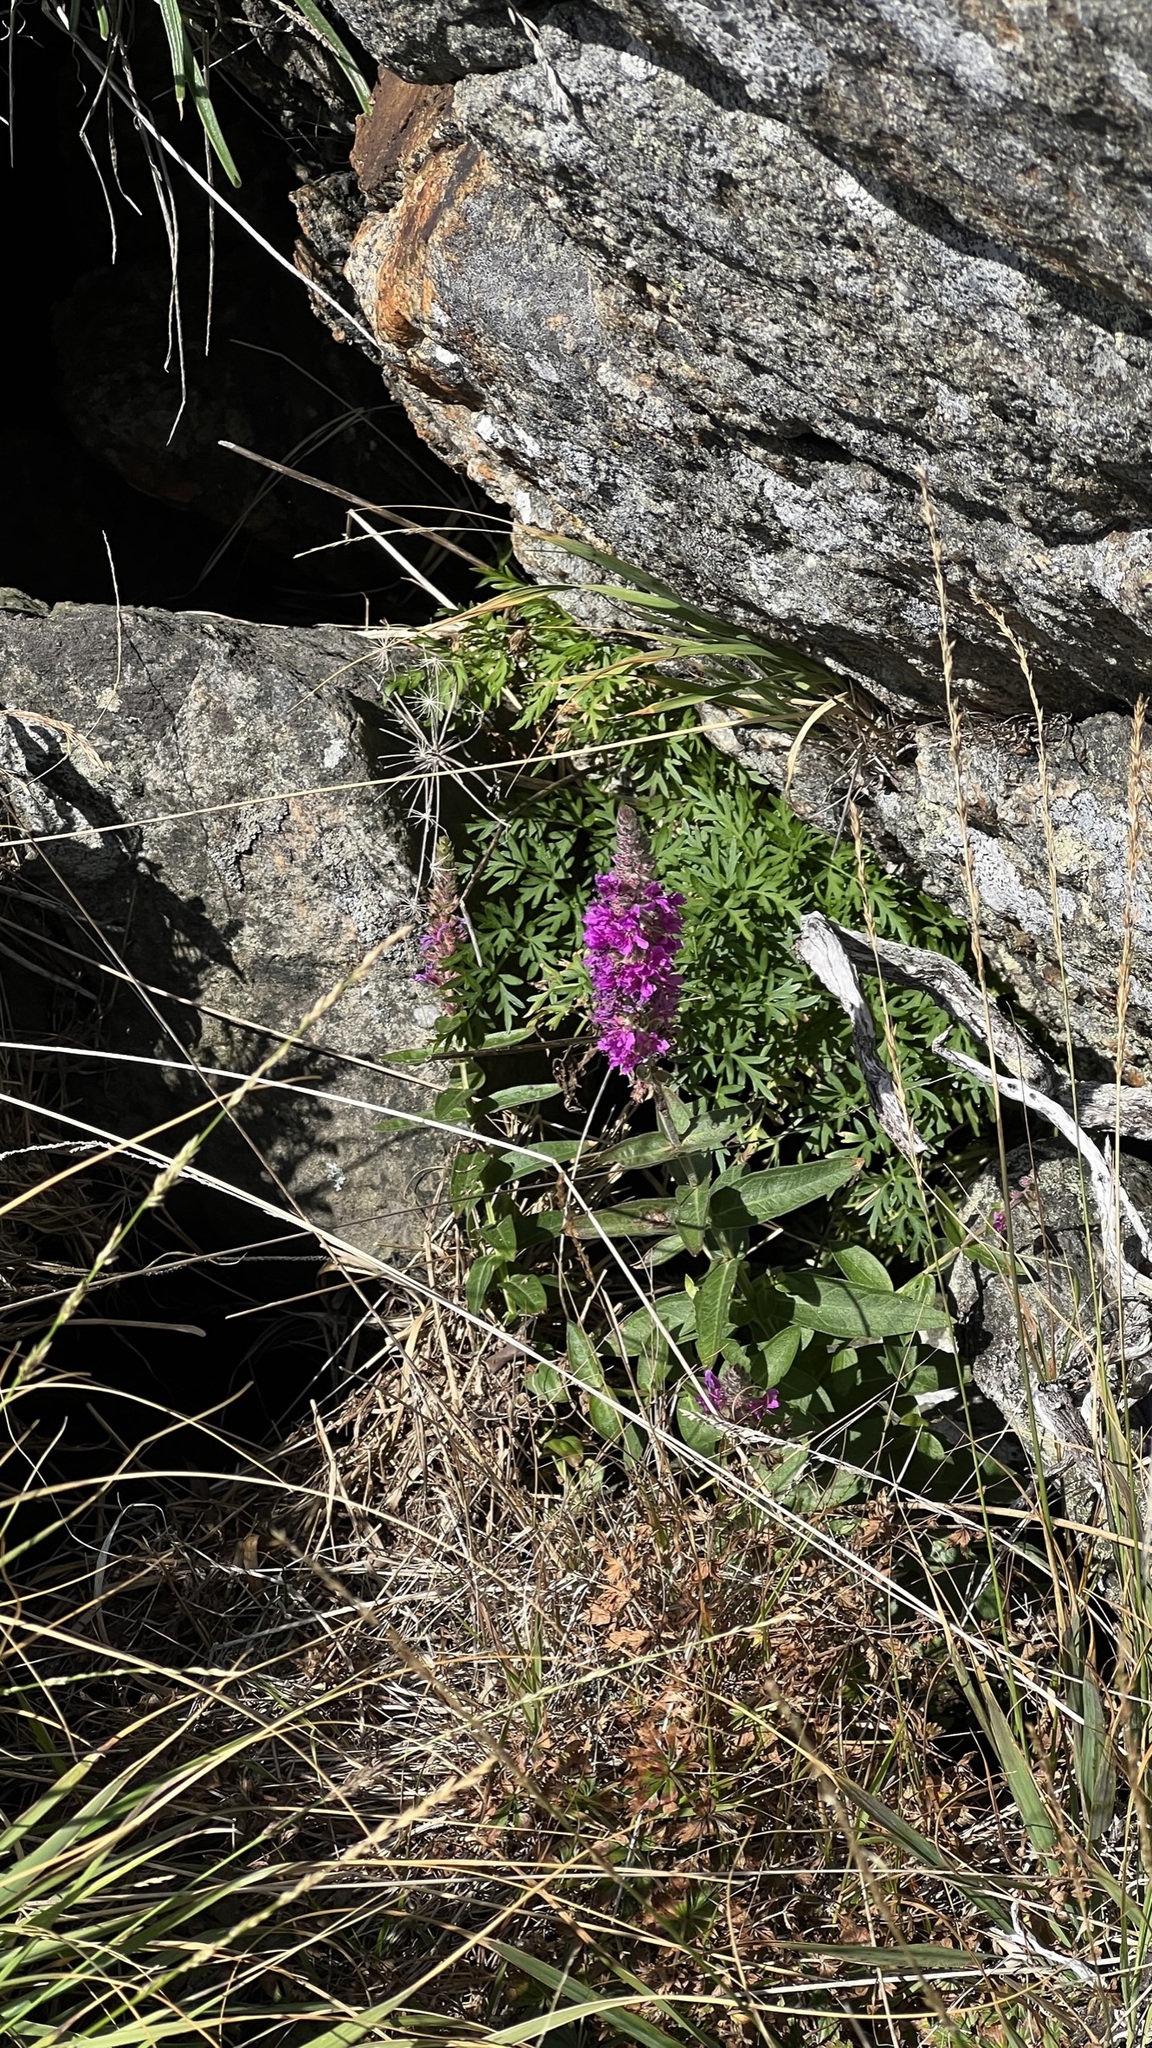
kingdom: Plantae
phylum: Tracheophyta
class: Magnoliopsida
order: Myrtales
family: Lythraceae
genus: Lythrum
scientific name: Lythrum salicaria
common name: Purple loosestrife
